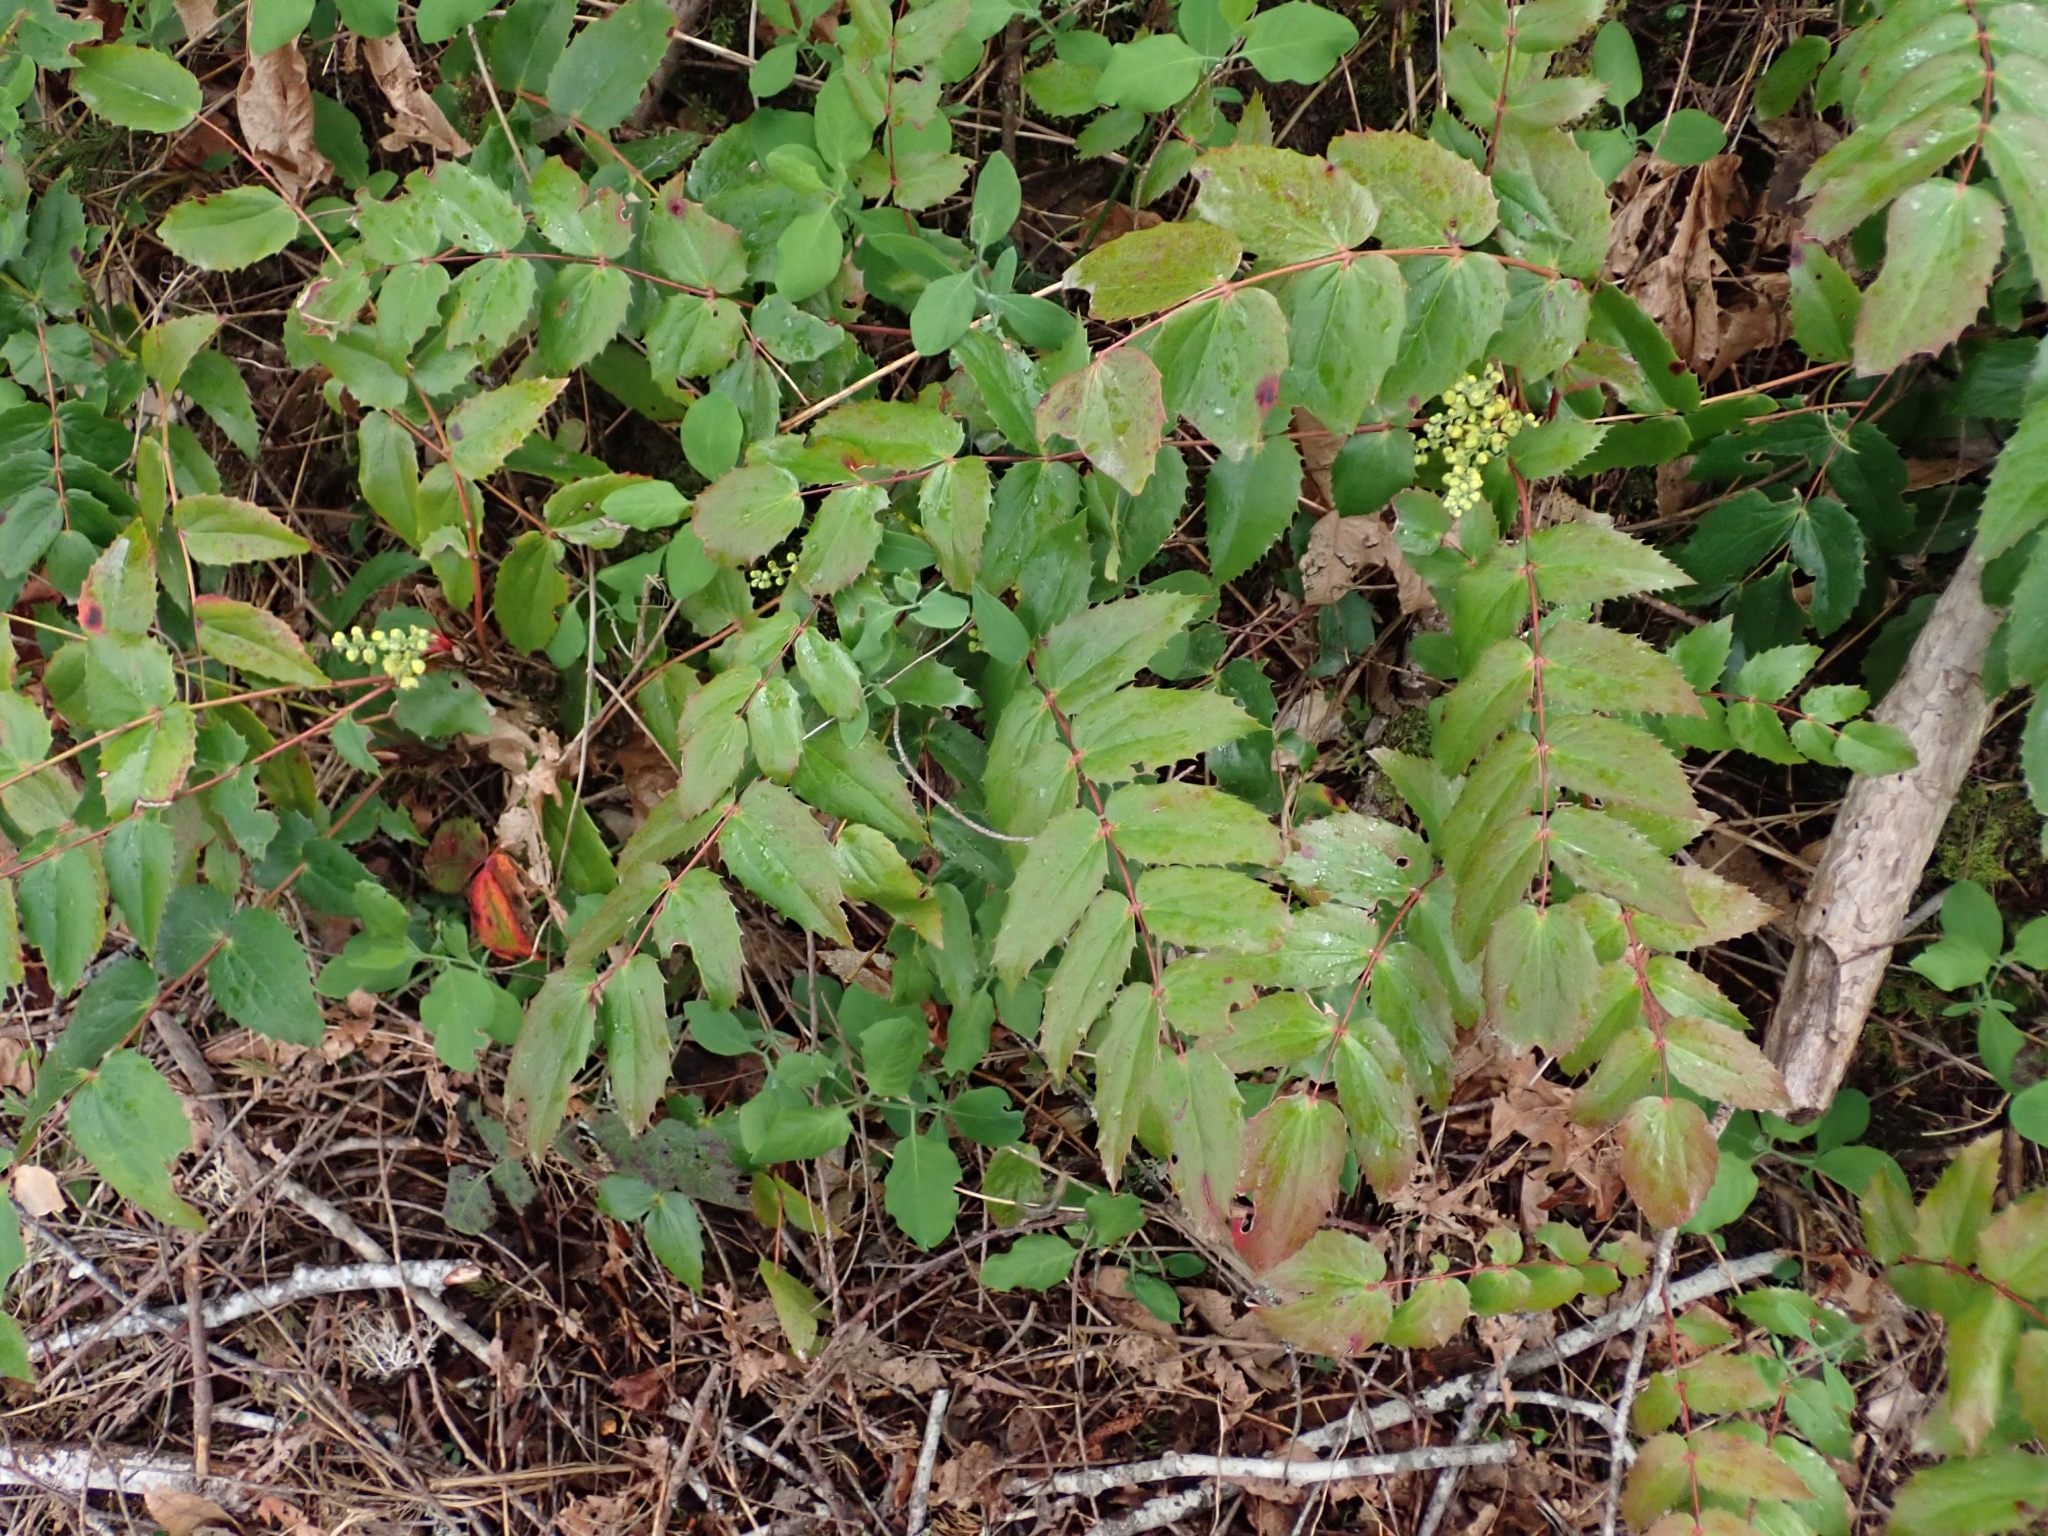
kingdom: Plantae
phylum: Tracheophyta
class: Magnoliopsida
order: Ranunculales
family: Berberidaceae
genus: Mahonia
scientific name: Mahonia nervosa
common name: Cascade oregon-grape
